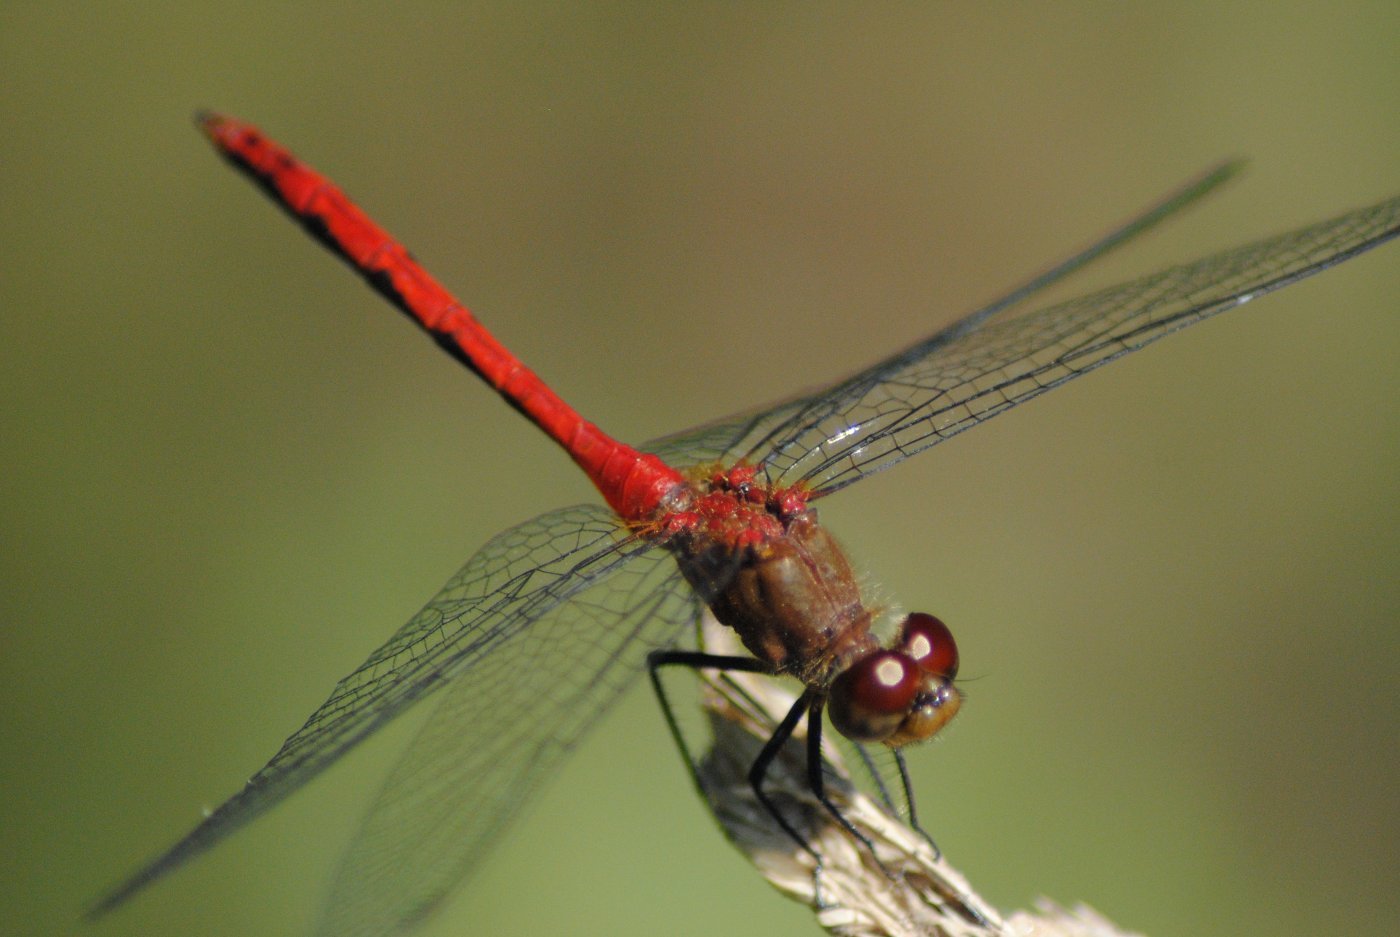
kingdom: Animalia
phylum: Arthropoda
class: Insecta
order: Odonata
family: Libellulidae
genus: Sympetrum
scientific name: Sympetrum rubicundulum
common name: Ruby meadowhawk
